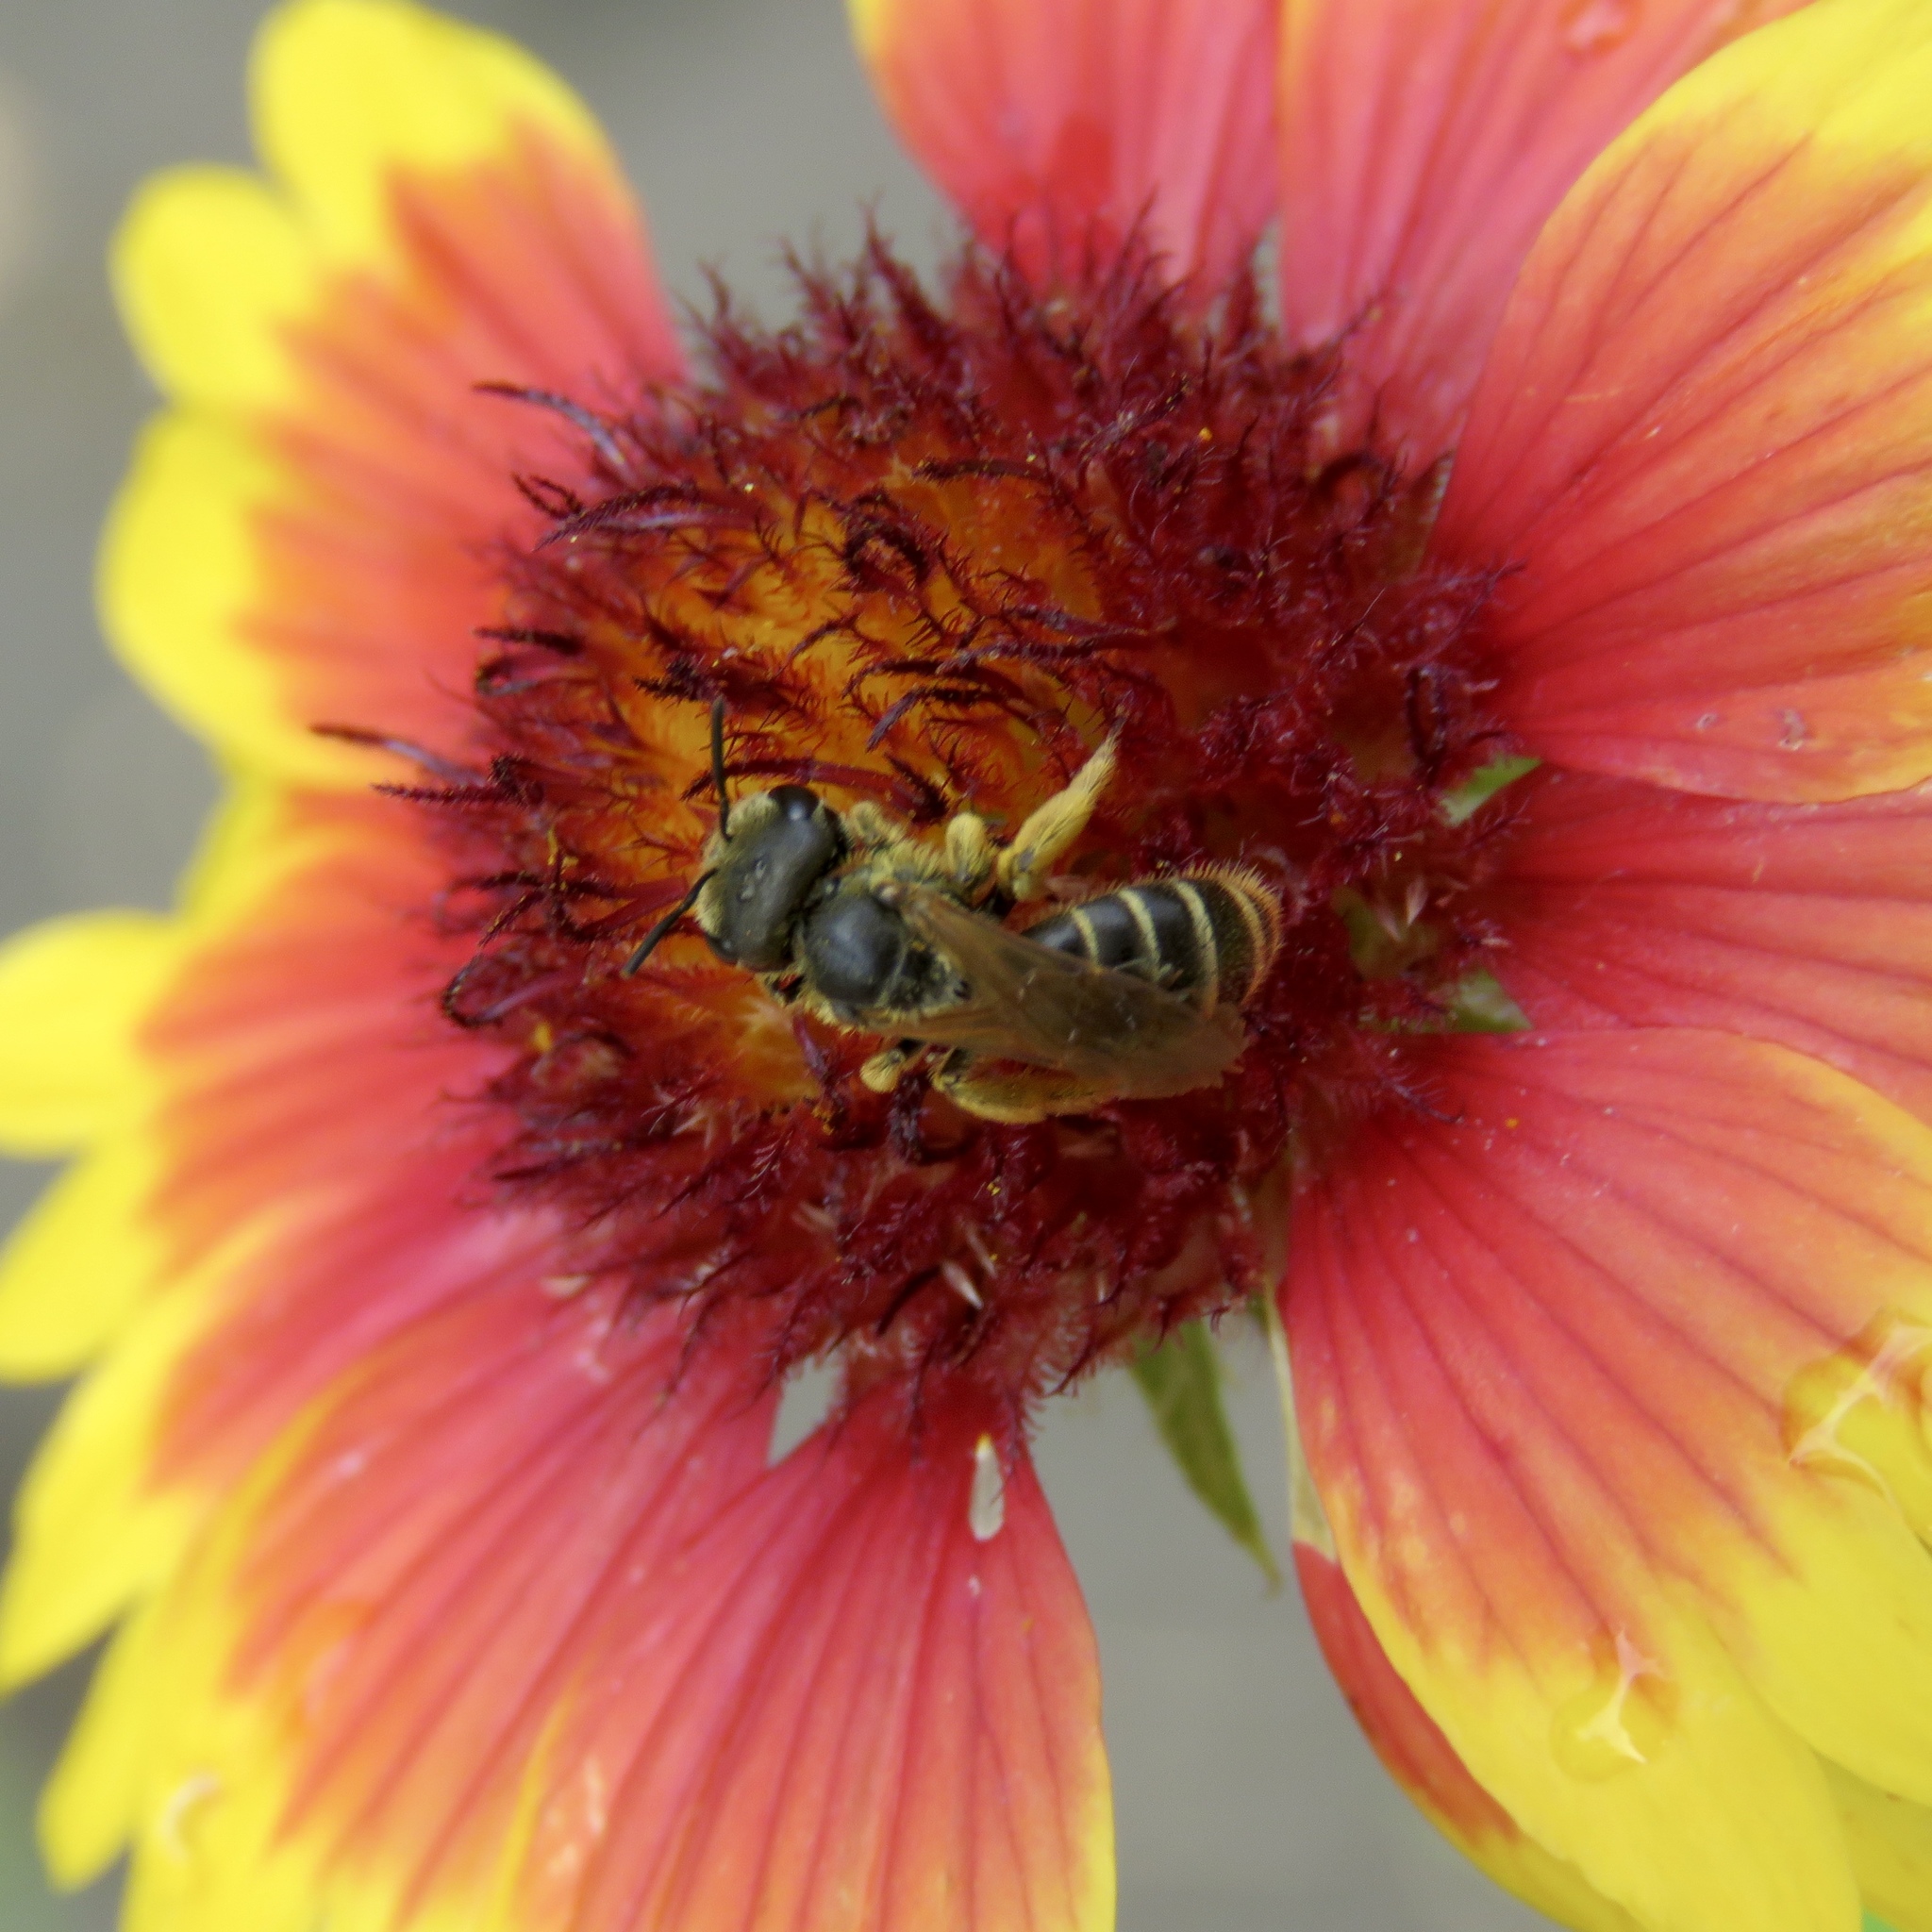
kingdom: Animalia
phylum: Arthropoda
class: Insecta
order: Hymenoptera
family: Halictidae
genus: Halictus
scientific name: Halictus ligatus
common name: Ligated furrow bee
